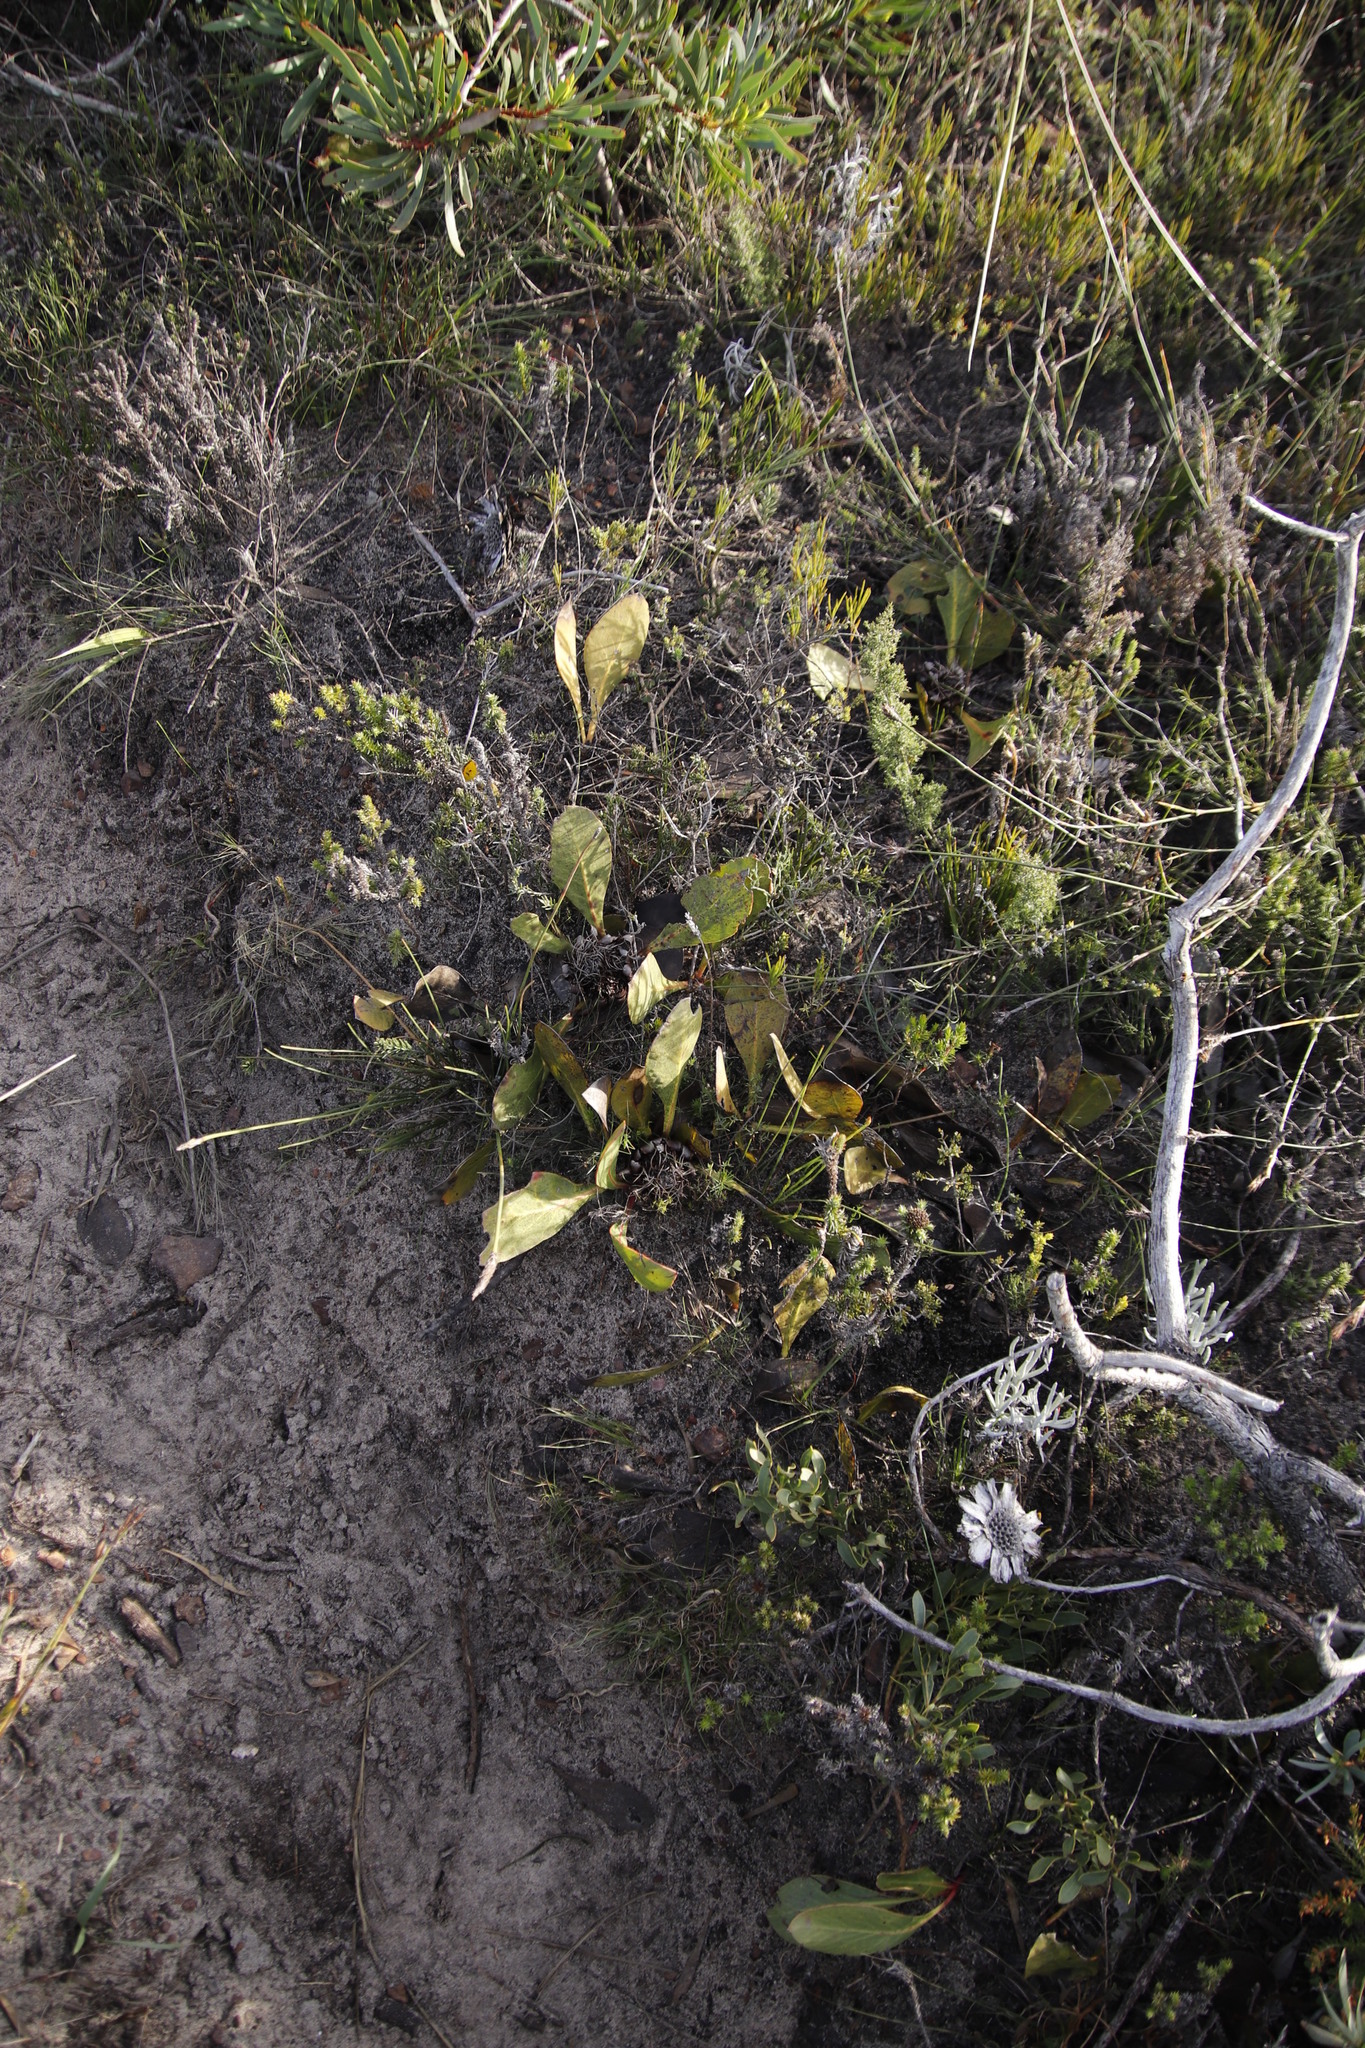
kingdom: Plantae
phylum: Tracheophyta
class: Magnoliopsida
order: Proteales
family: Proteaceae
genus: Protea
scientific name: Protea acaulos
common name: Common ground sugarbush
